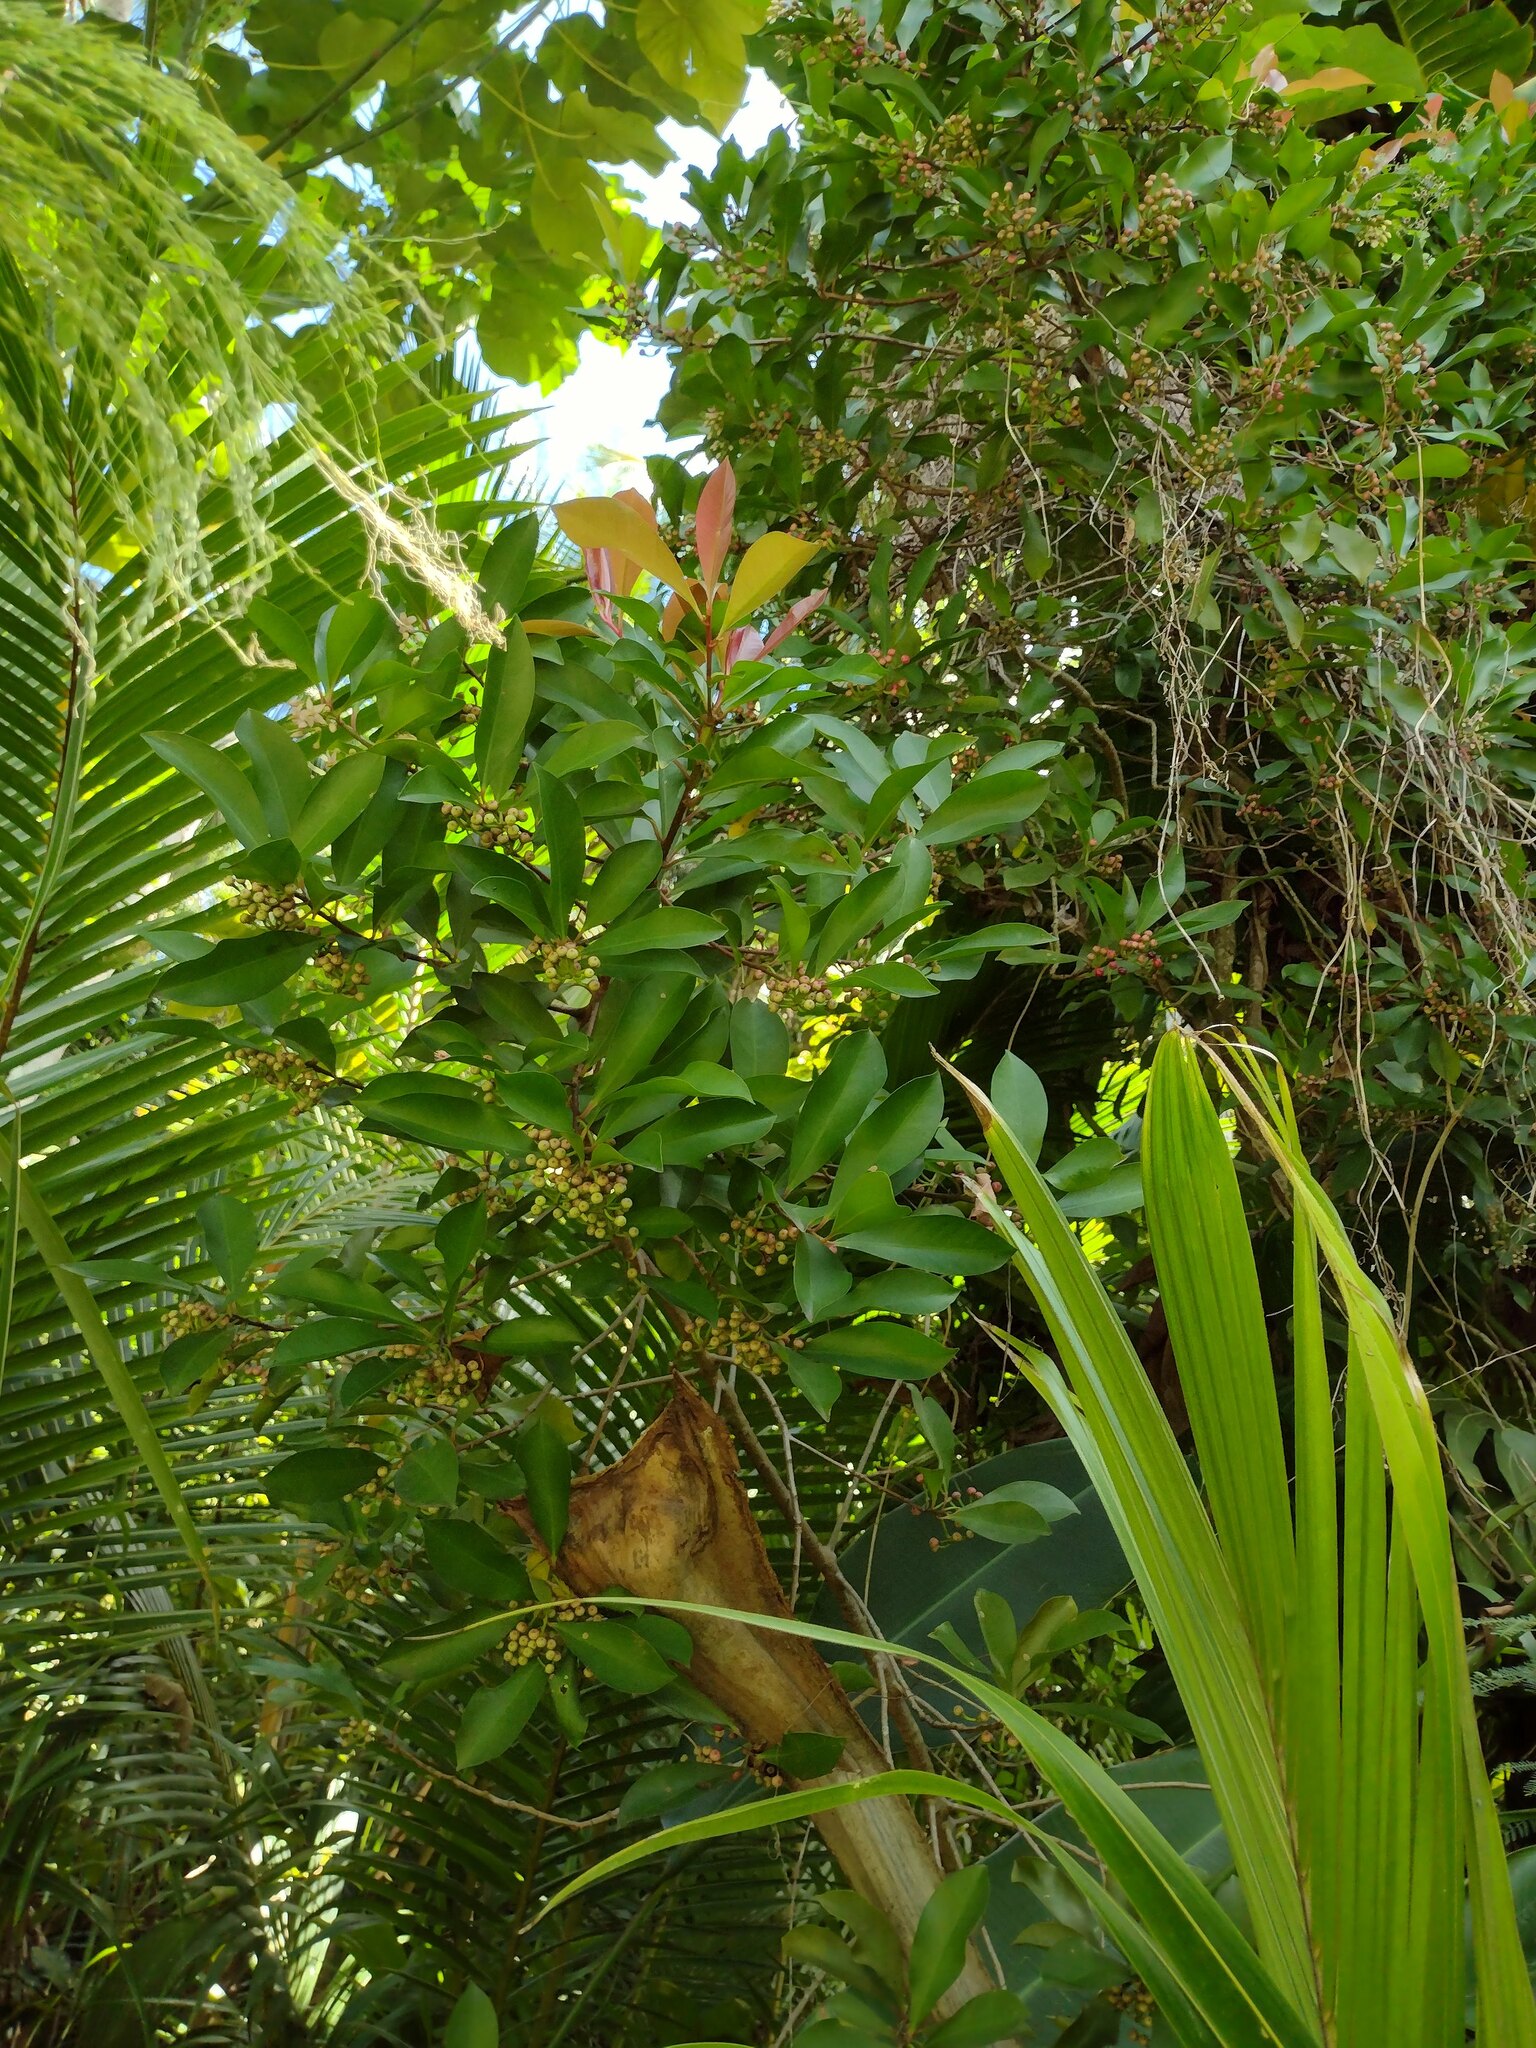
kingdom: Plantae
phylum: Tracheophyta
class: Magnoliopsida
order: Ericales
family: Primulaceae
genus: Ardisia
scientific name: Ardisia elliptica
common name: Shoebutton
